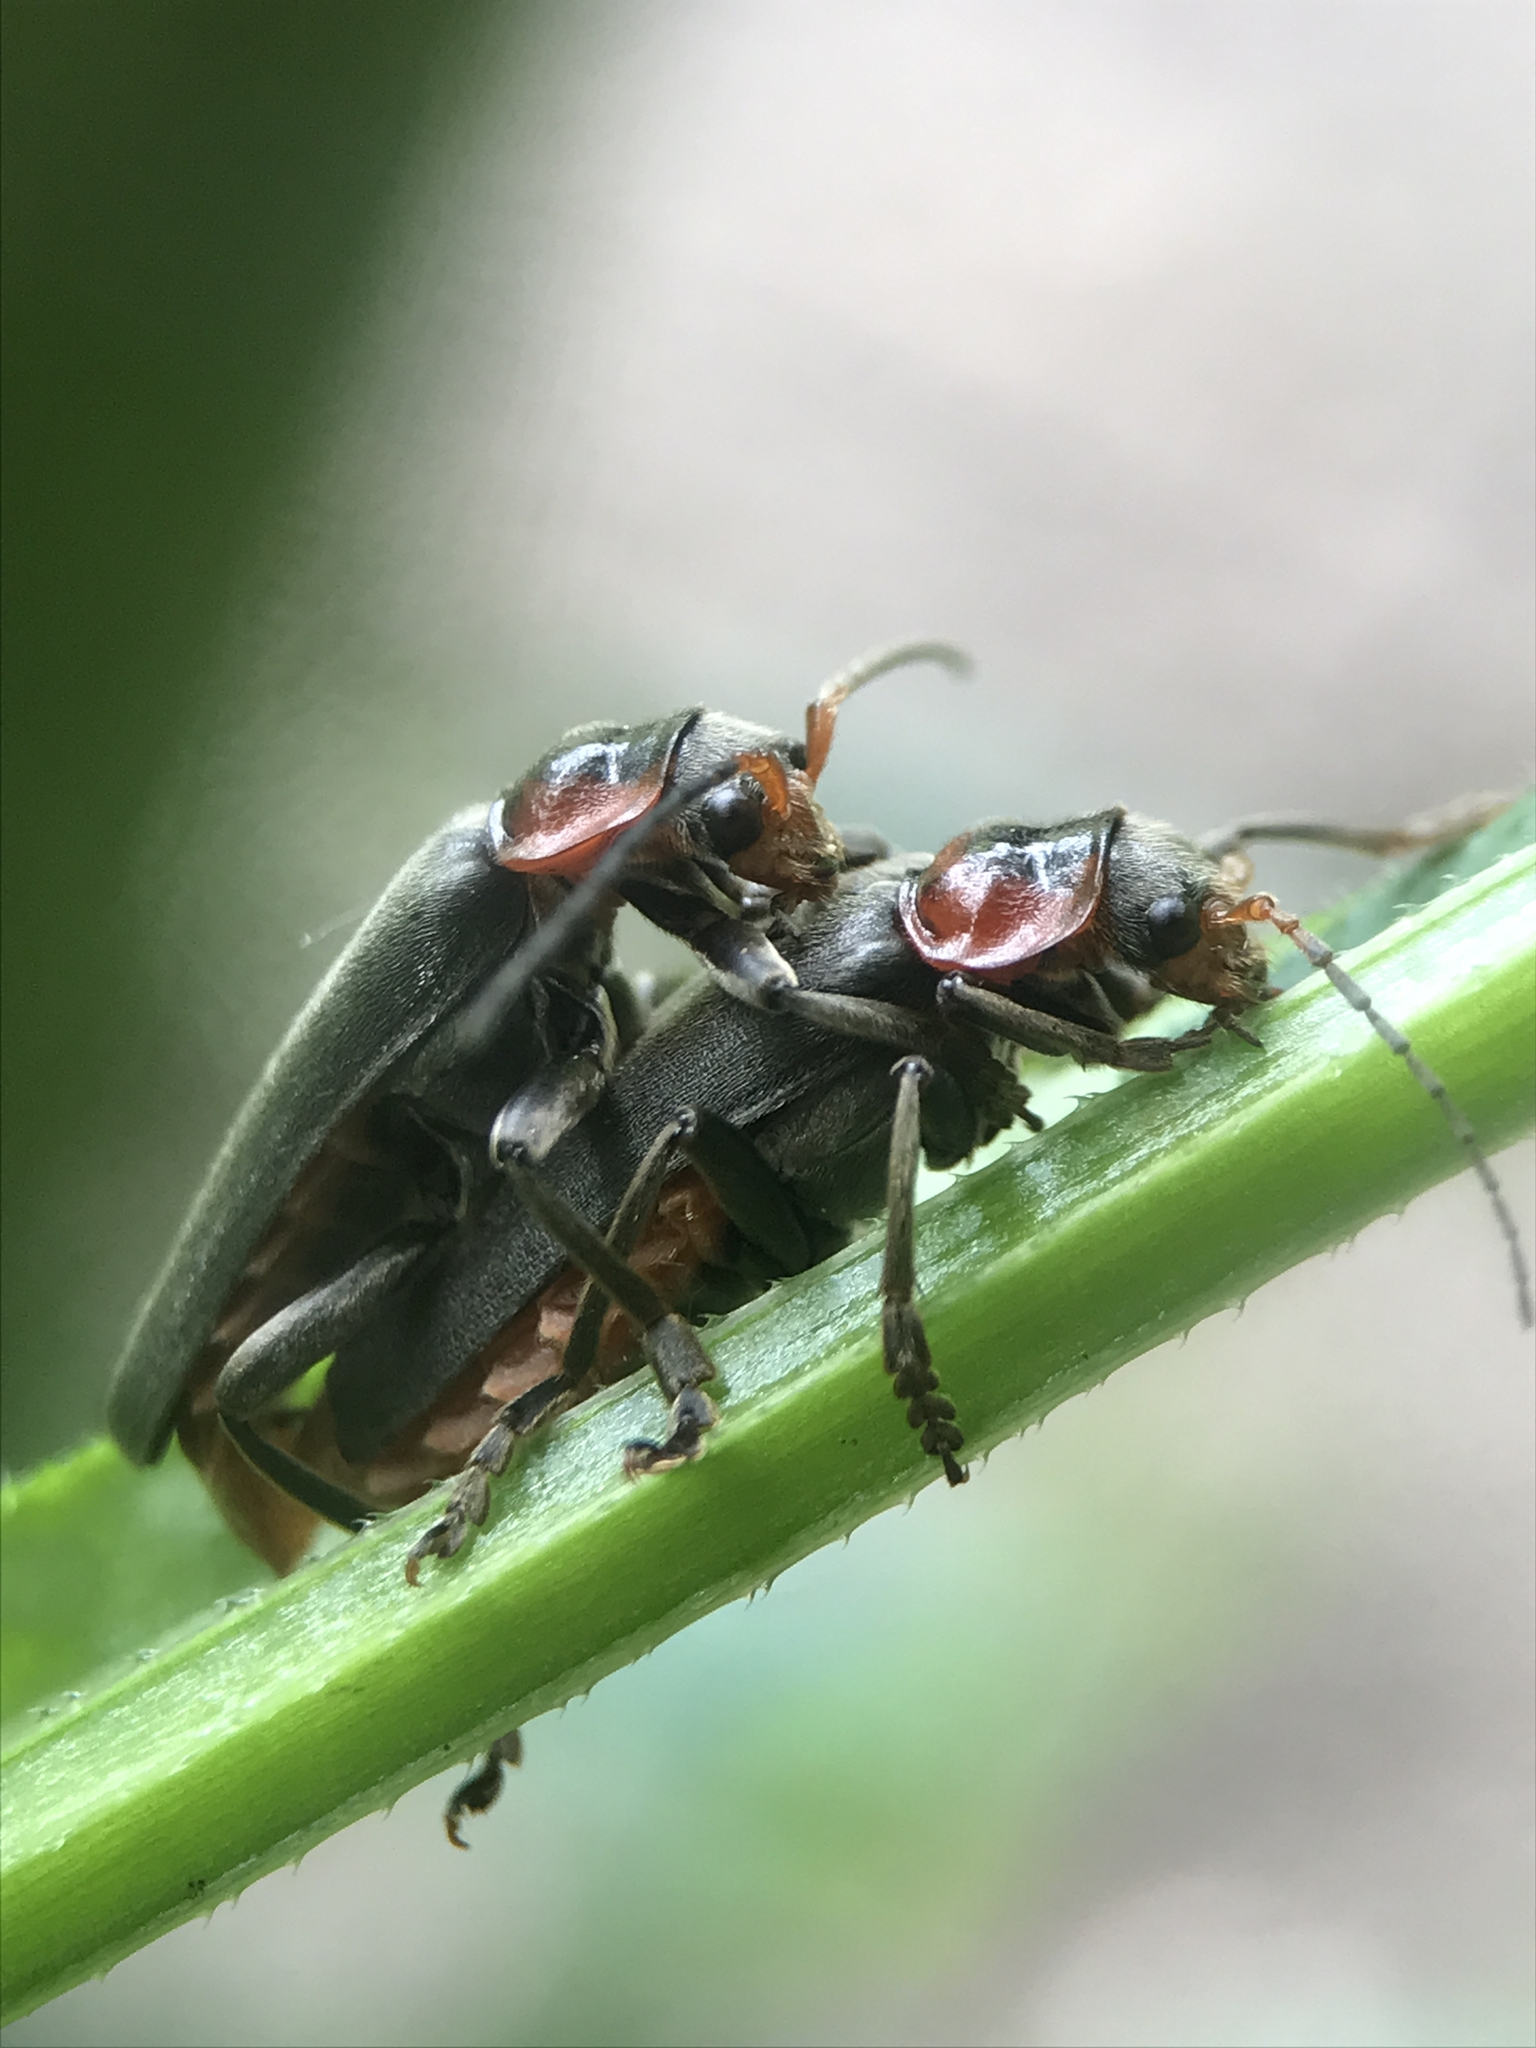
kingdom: Animalia
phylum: Arthropoda
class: Insecta
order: Coleoptera
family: Cantharidae
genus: Cantharis
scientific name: Cantharis fusca
